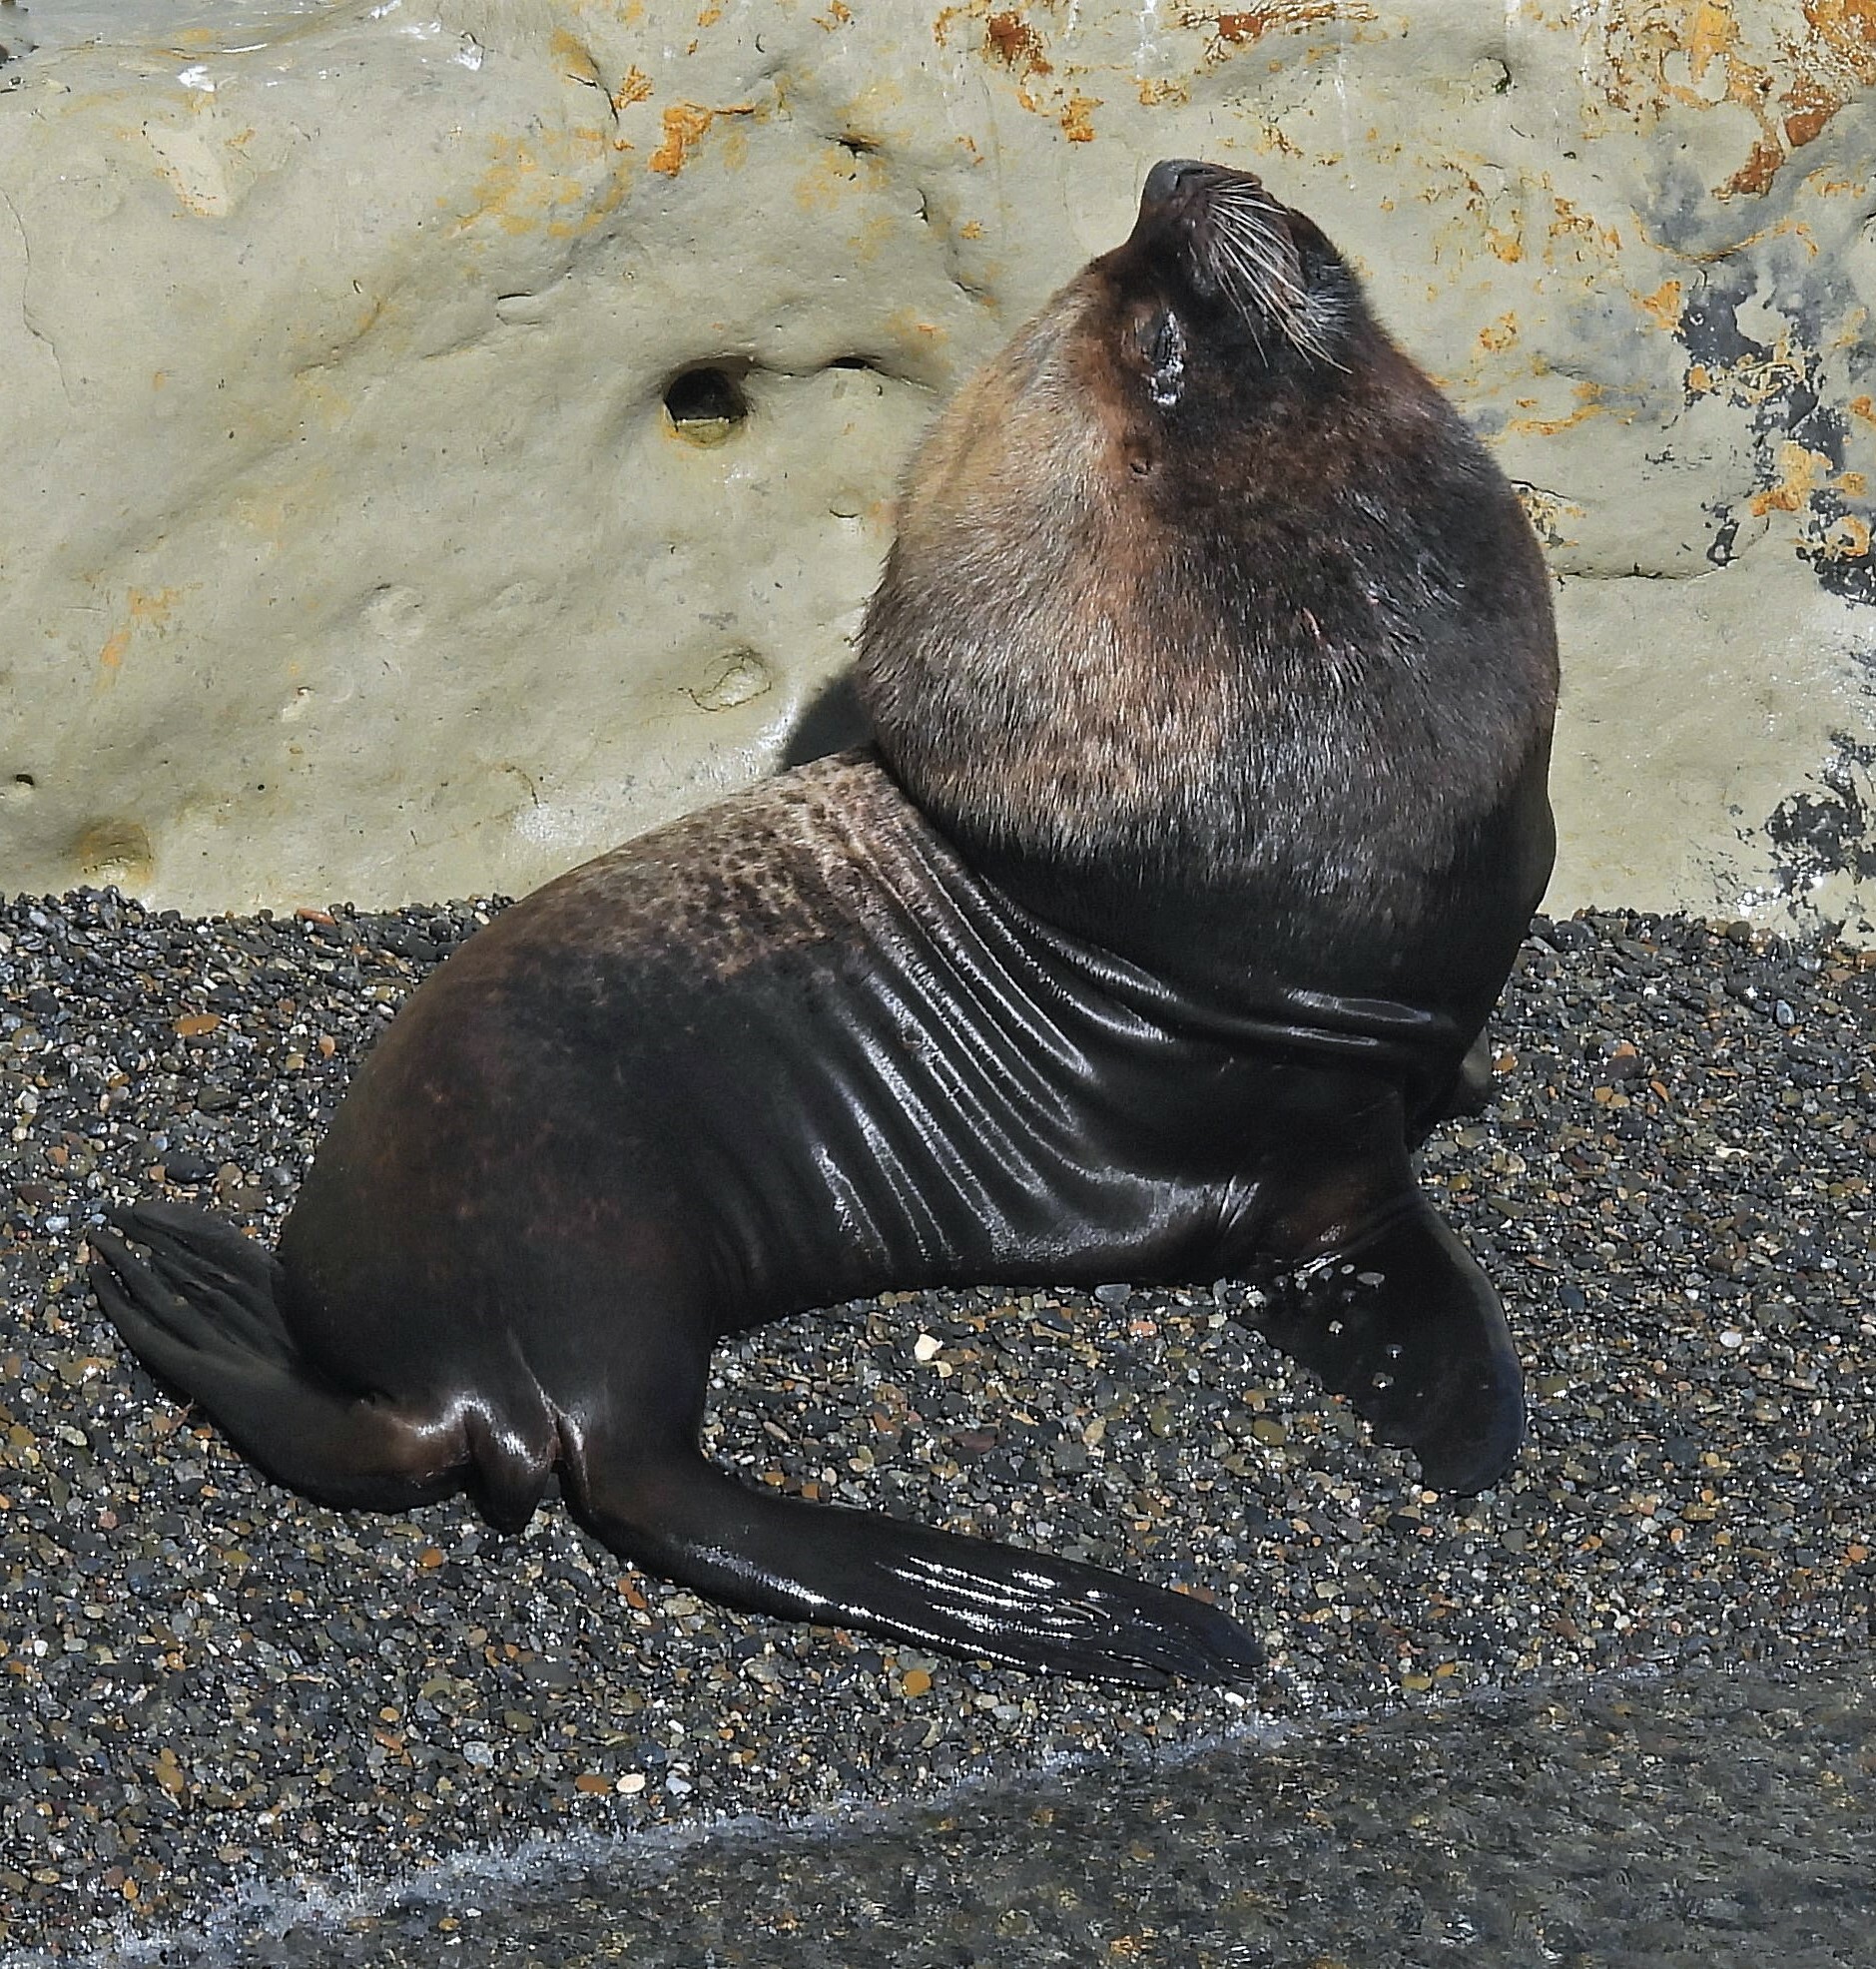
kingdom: Animalia
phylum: Chordata
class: Mammalia
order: Carnivora
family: Otariidae
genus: Otaria
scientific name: Otaria byronia
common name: South american sea lion
